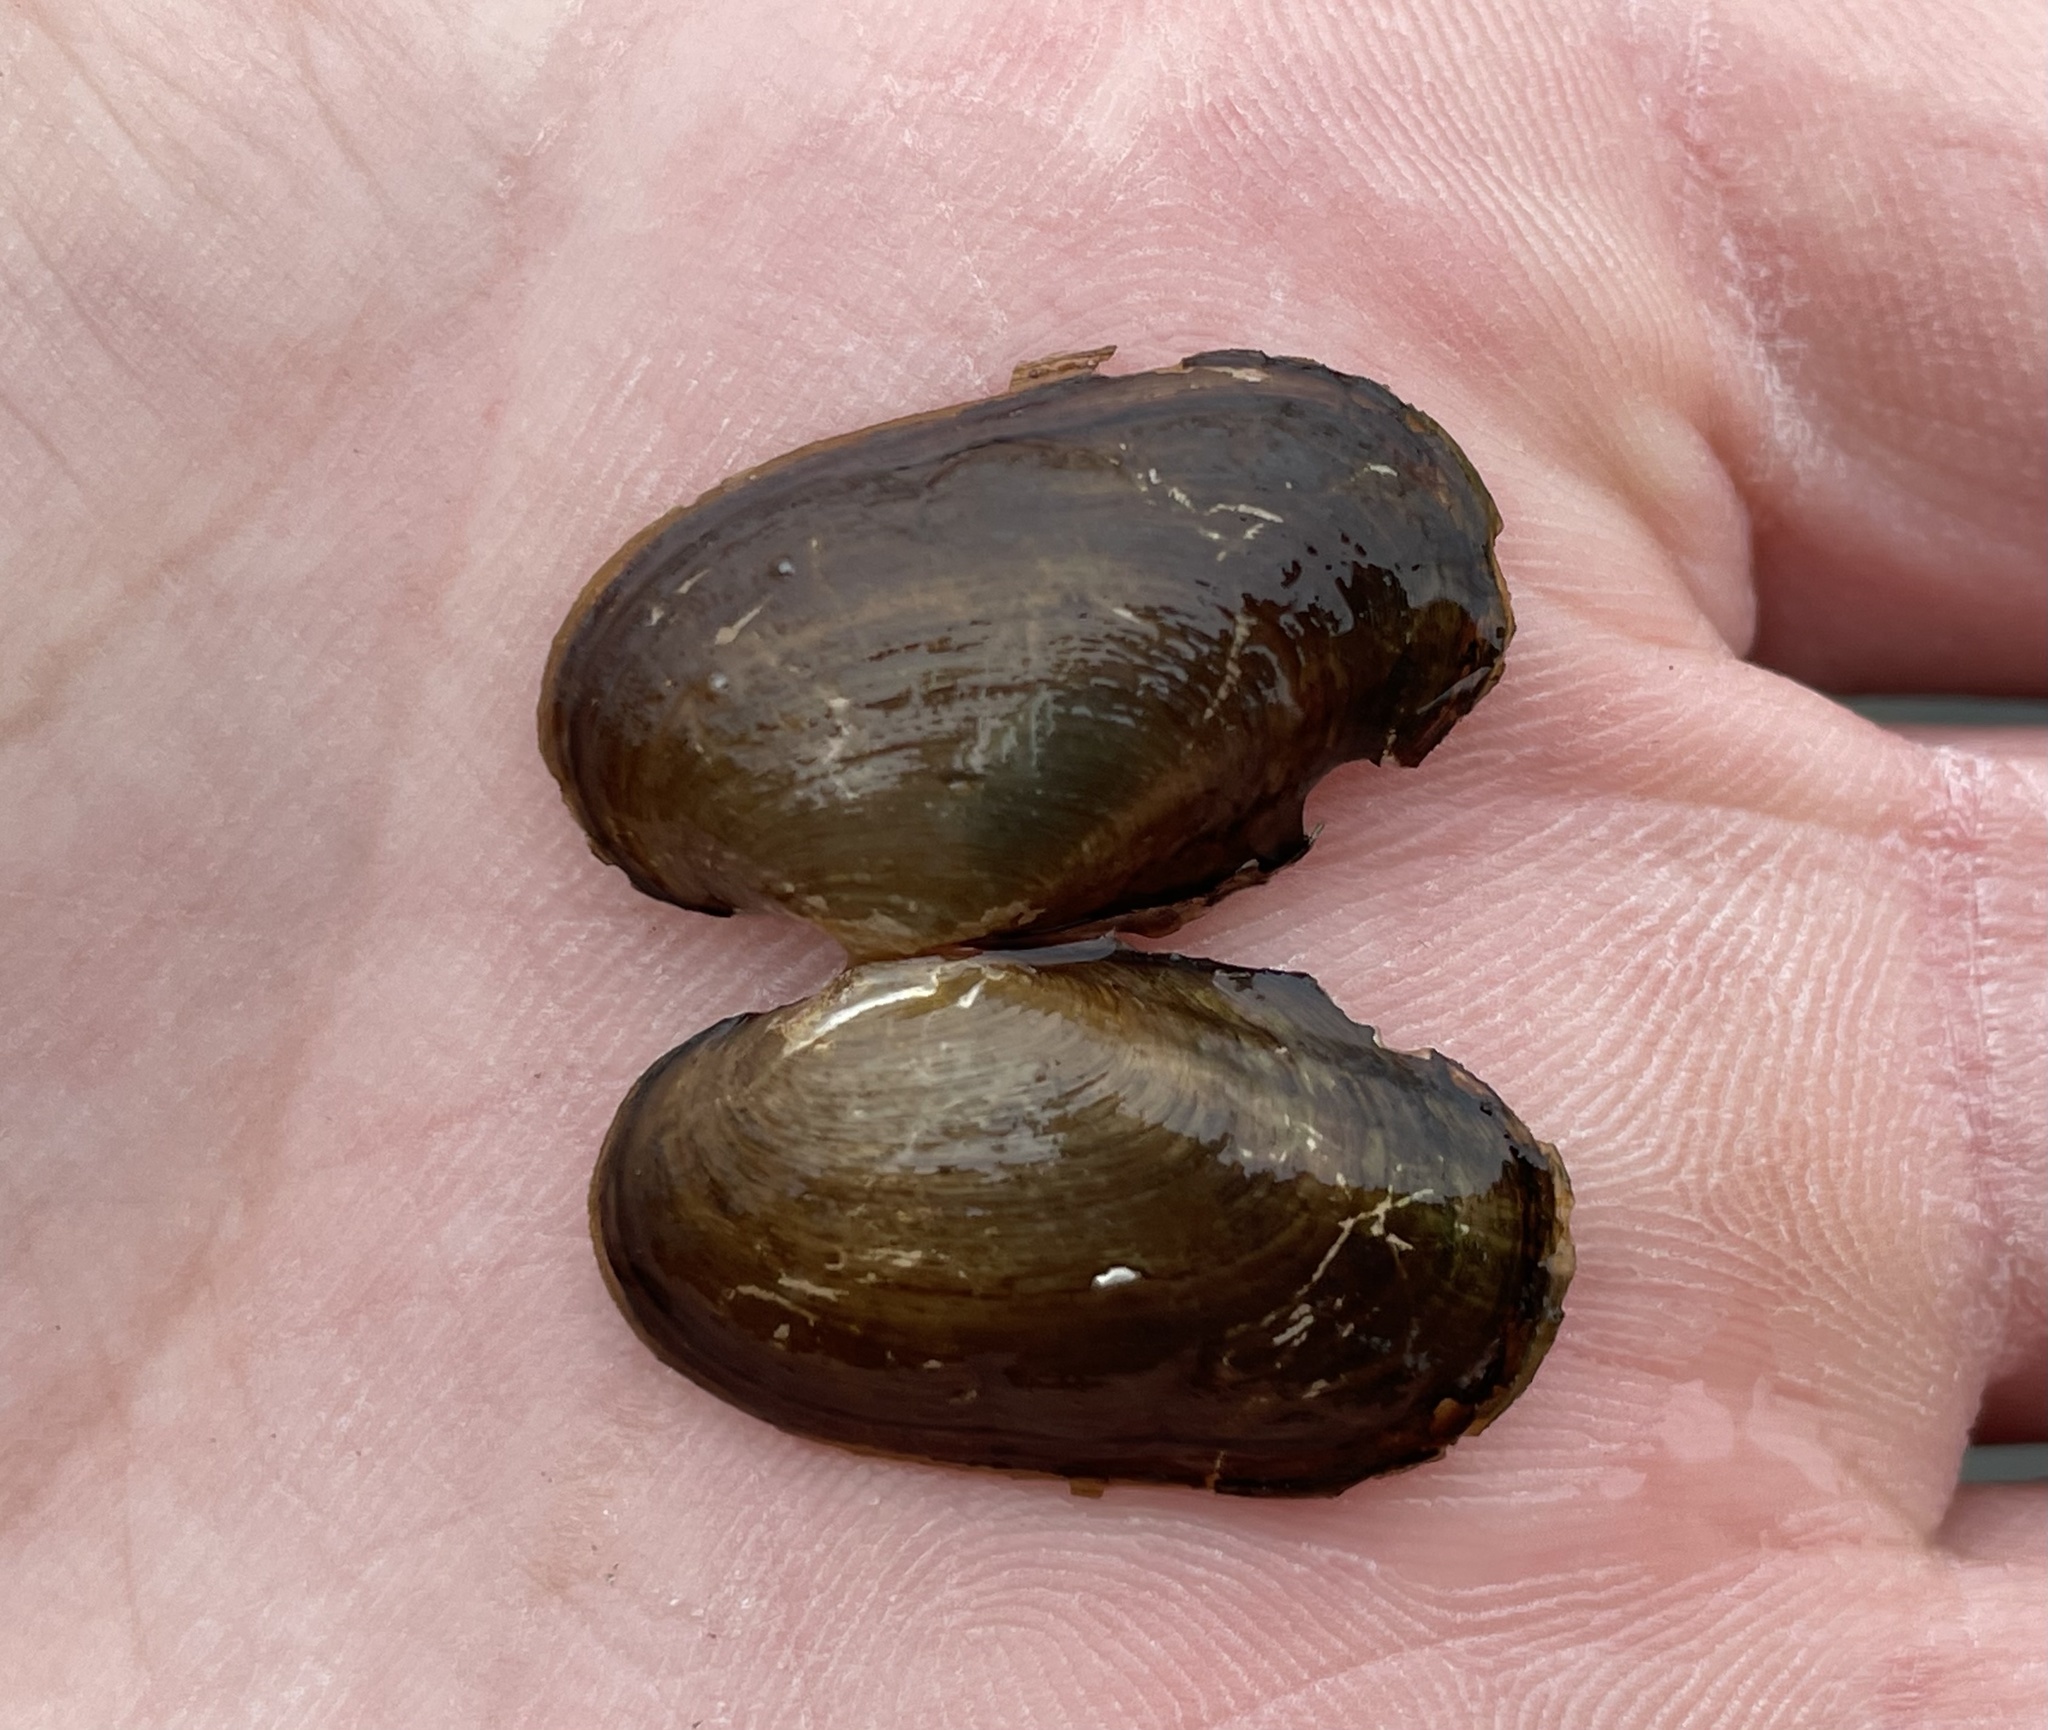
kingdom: Animalia
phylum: Mollusca
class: Bivalvia
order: Unionida
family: Unionidae
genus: Toxolasma
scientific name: Toxolasma texasiense
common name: Texas lilliput
